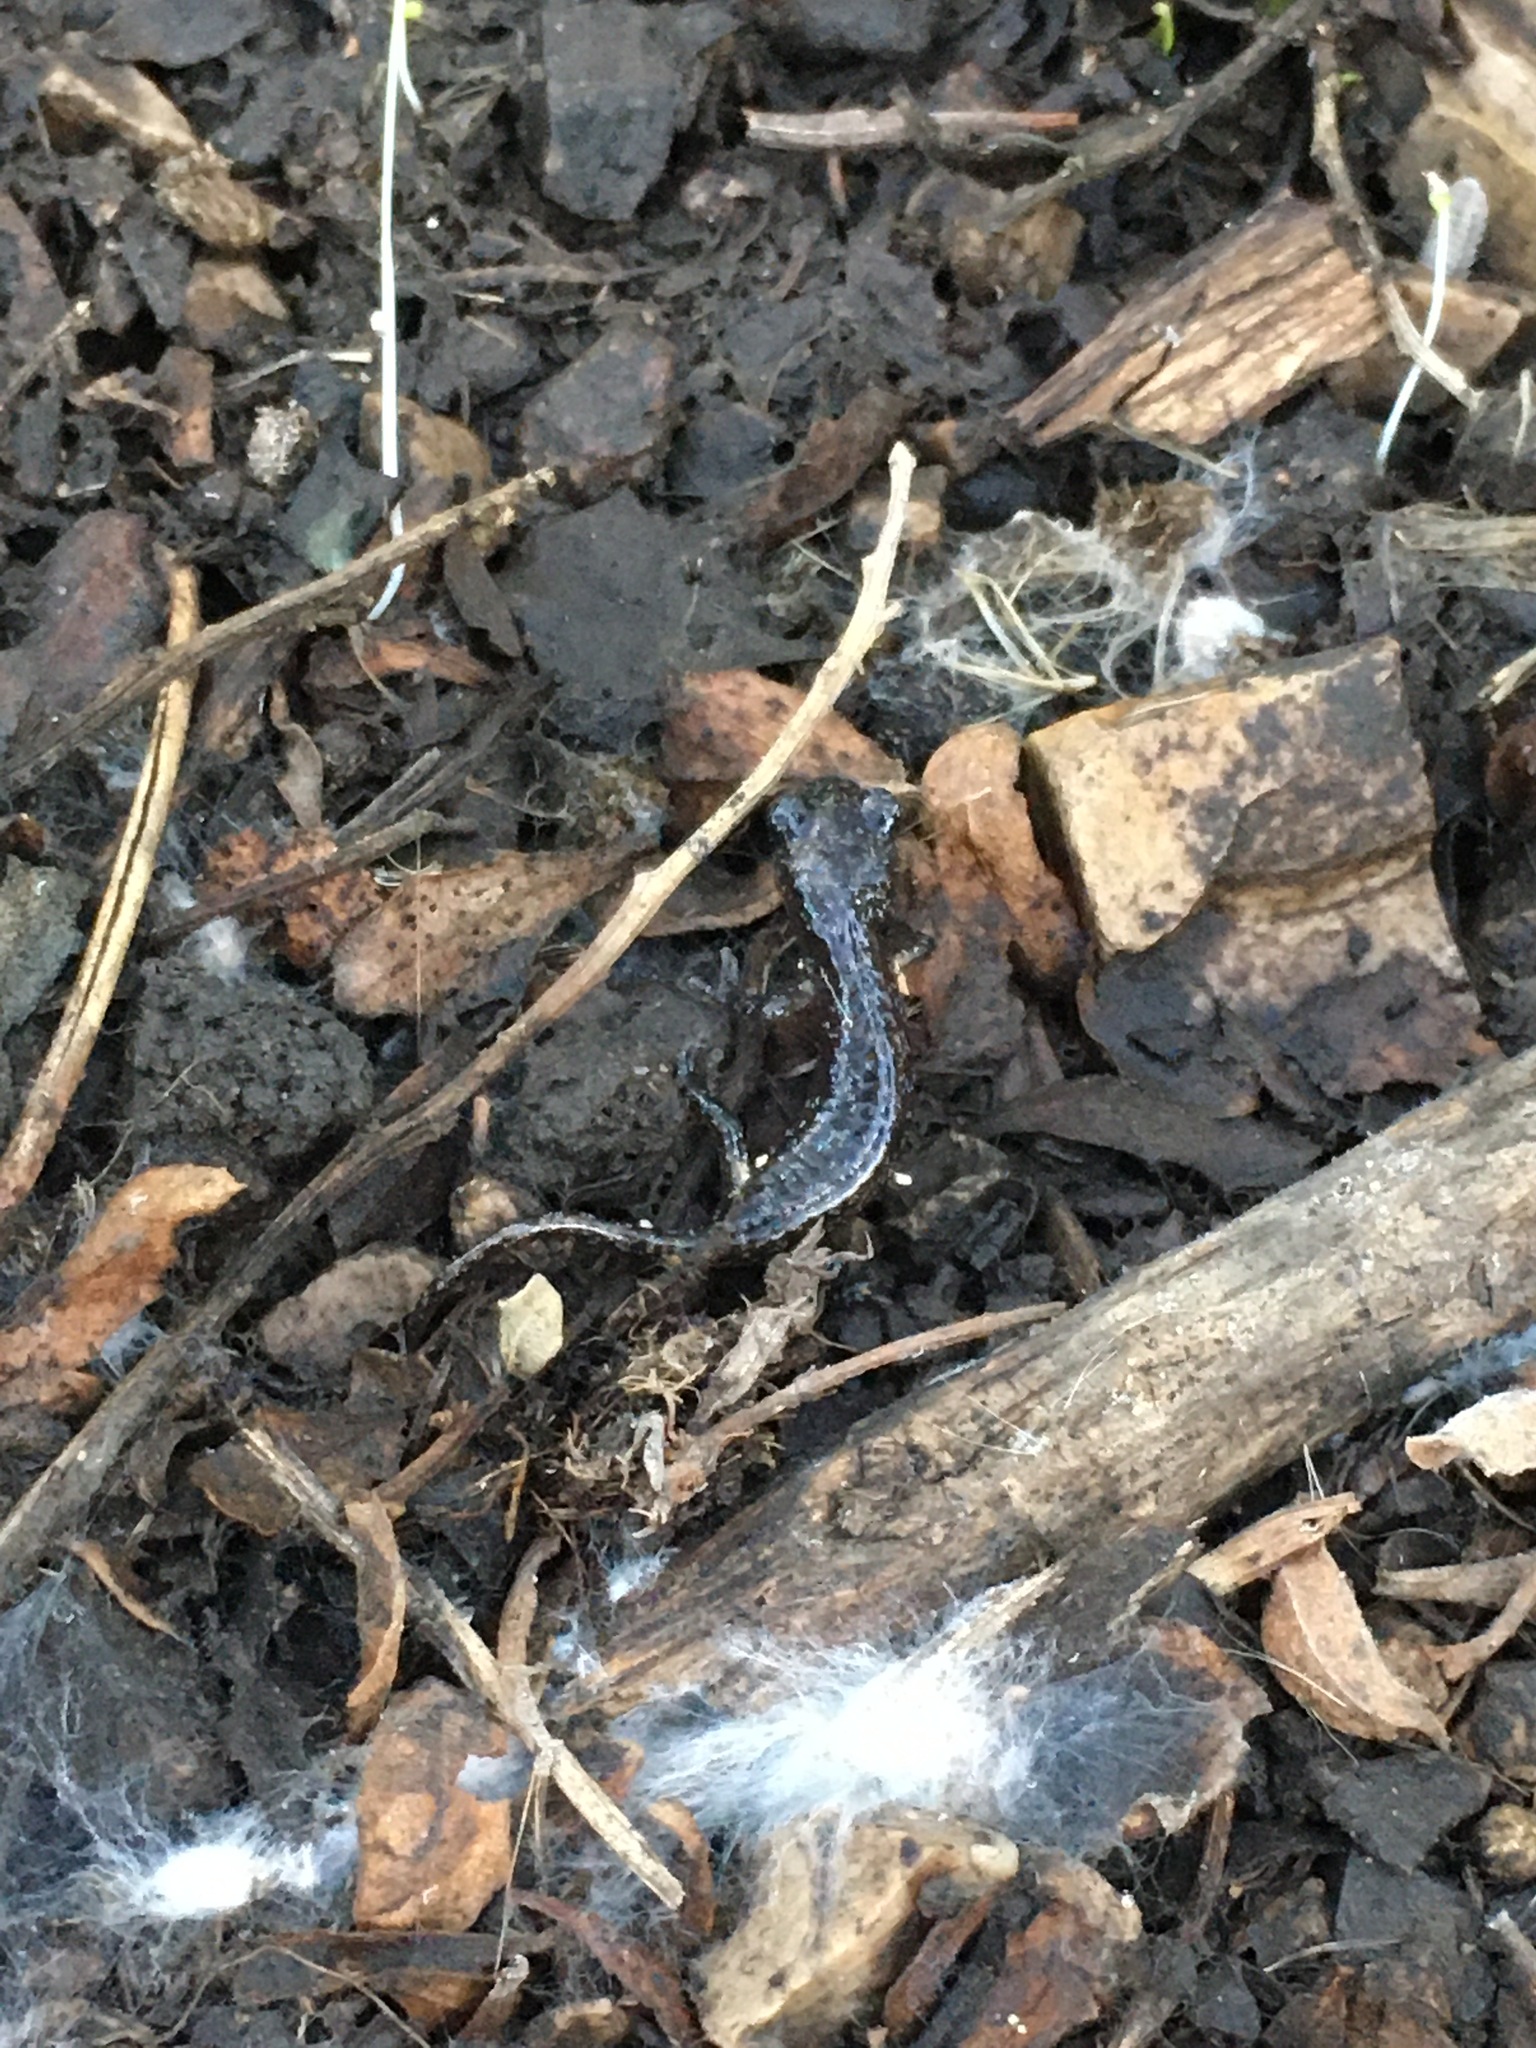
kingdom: Animalia
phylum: Chordata
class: Amphibia
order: Caudata
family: Plethodontidae
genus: Aneides
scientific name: Aneides lugubris
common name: Arboreal salamander
